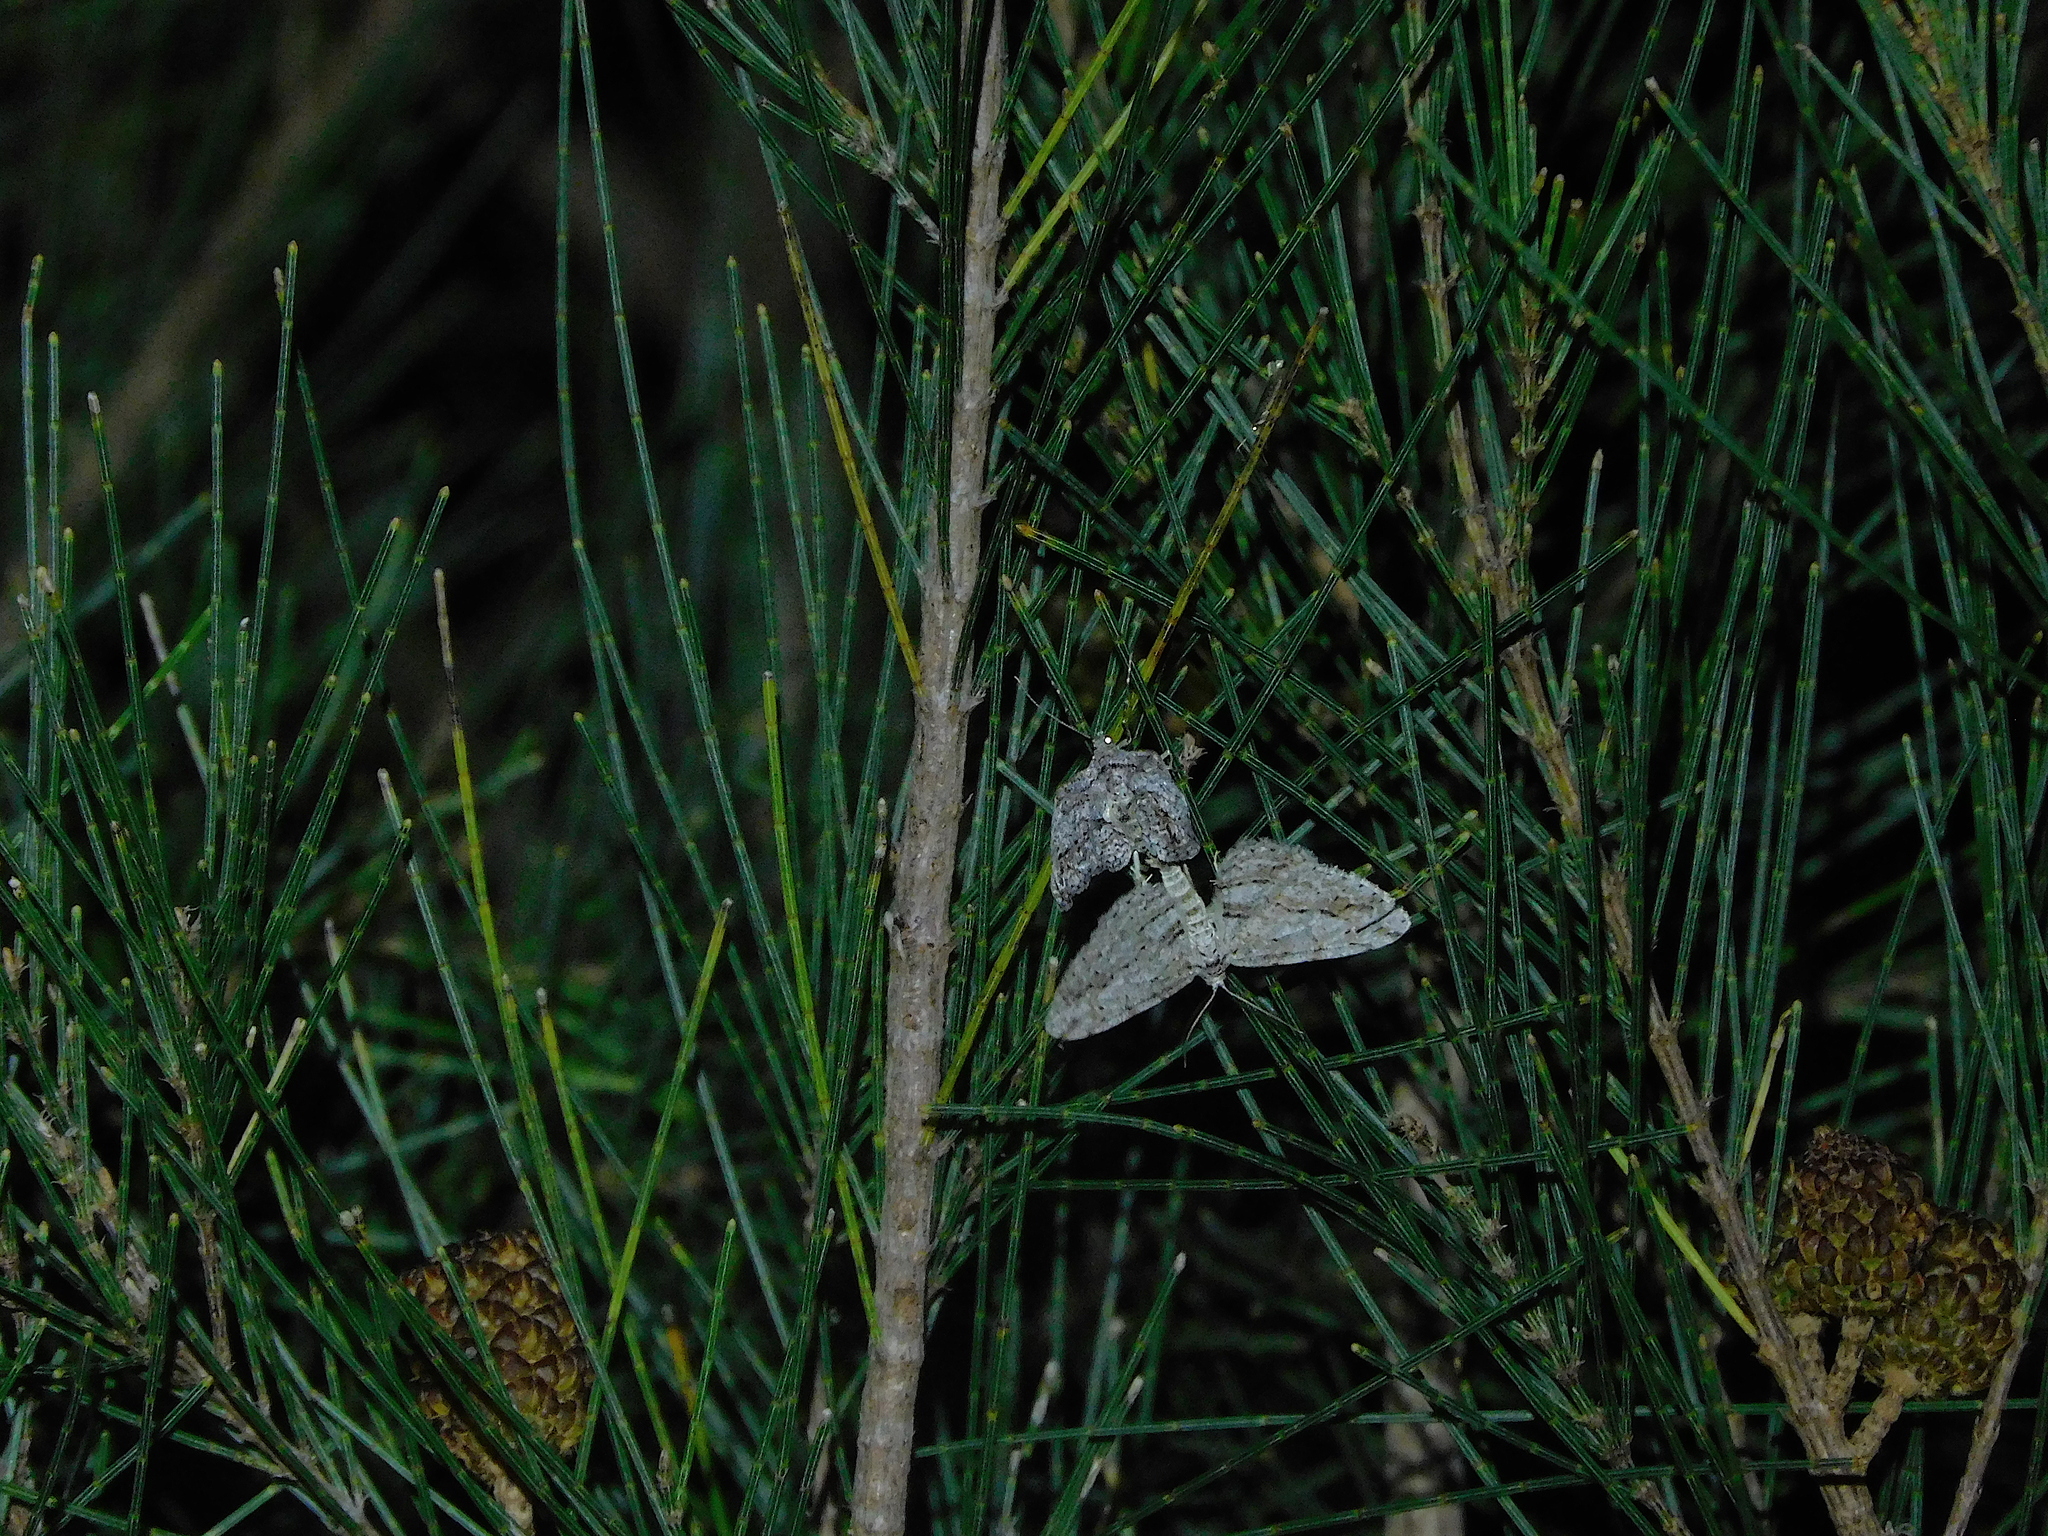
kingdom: Animalia
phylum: Arthropoda
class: Insecta
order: Lepidoptera
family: Geometridae
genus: Didymoctenia
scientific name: Didymoctenia exsuperata
